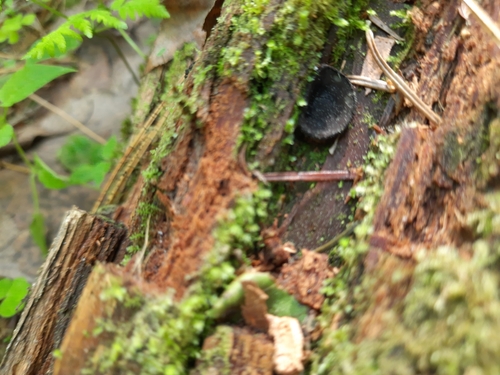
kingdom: Fungi
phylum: Ascomycota
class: Pezizomycetes
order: Pezizales
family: Sarcosomataceae
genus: Pseudoplectania
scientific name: Pseudoplectania nigrella
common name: Ebony cup
